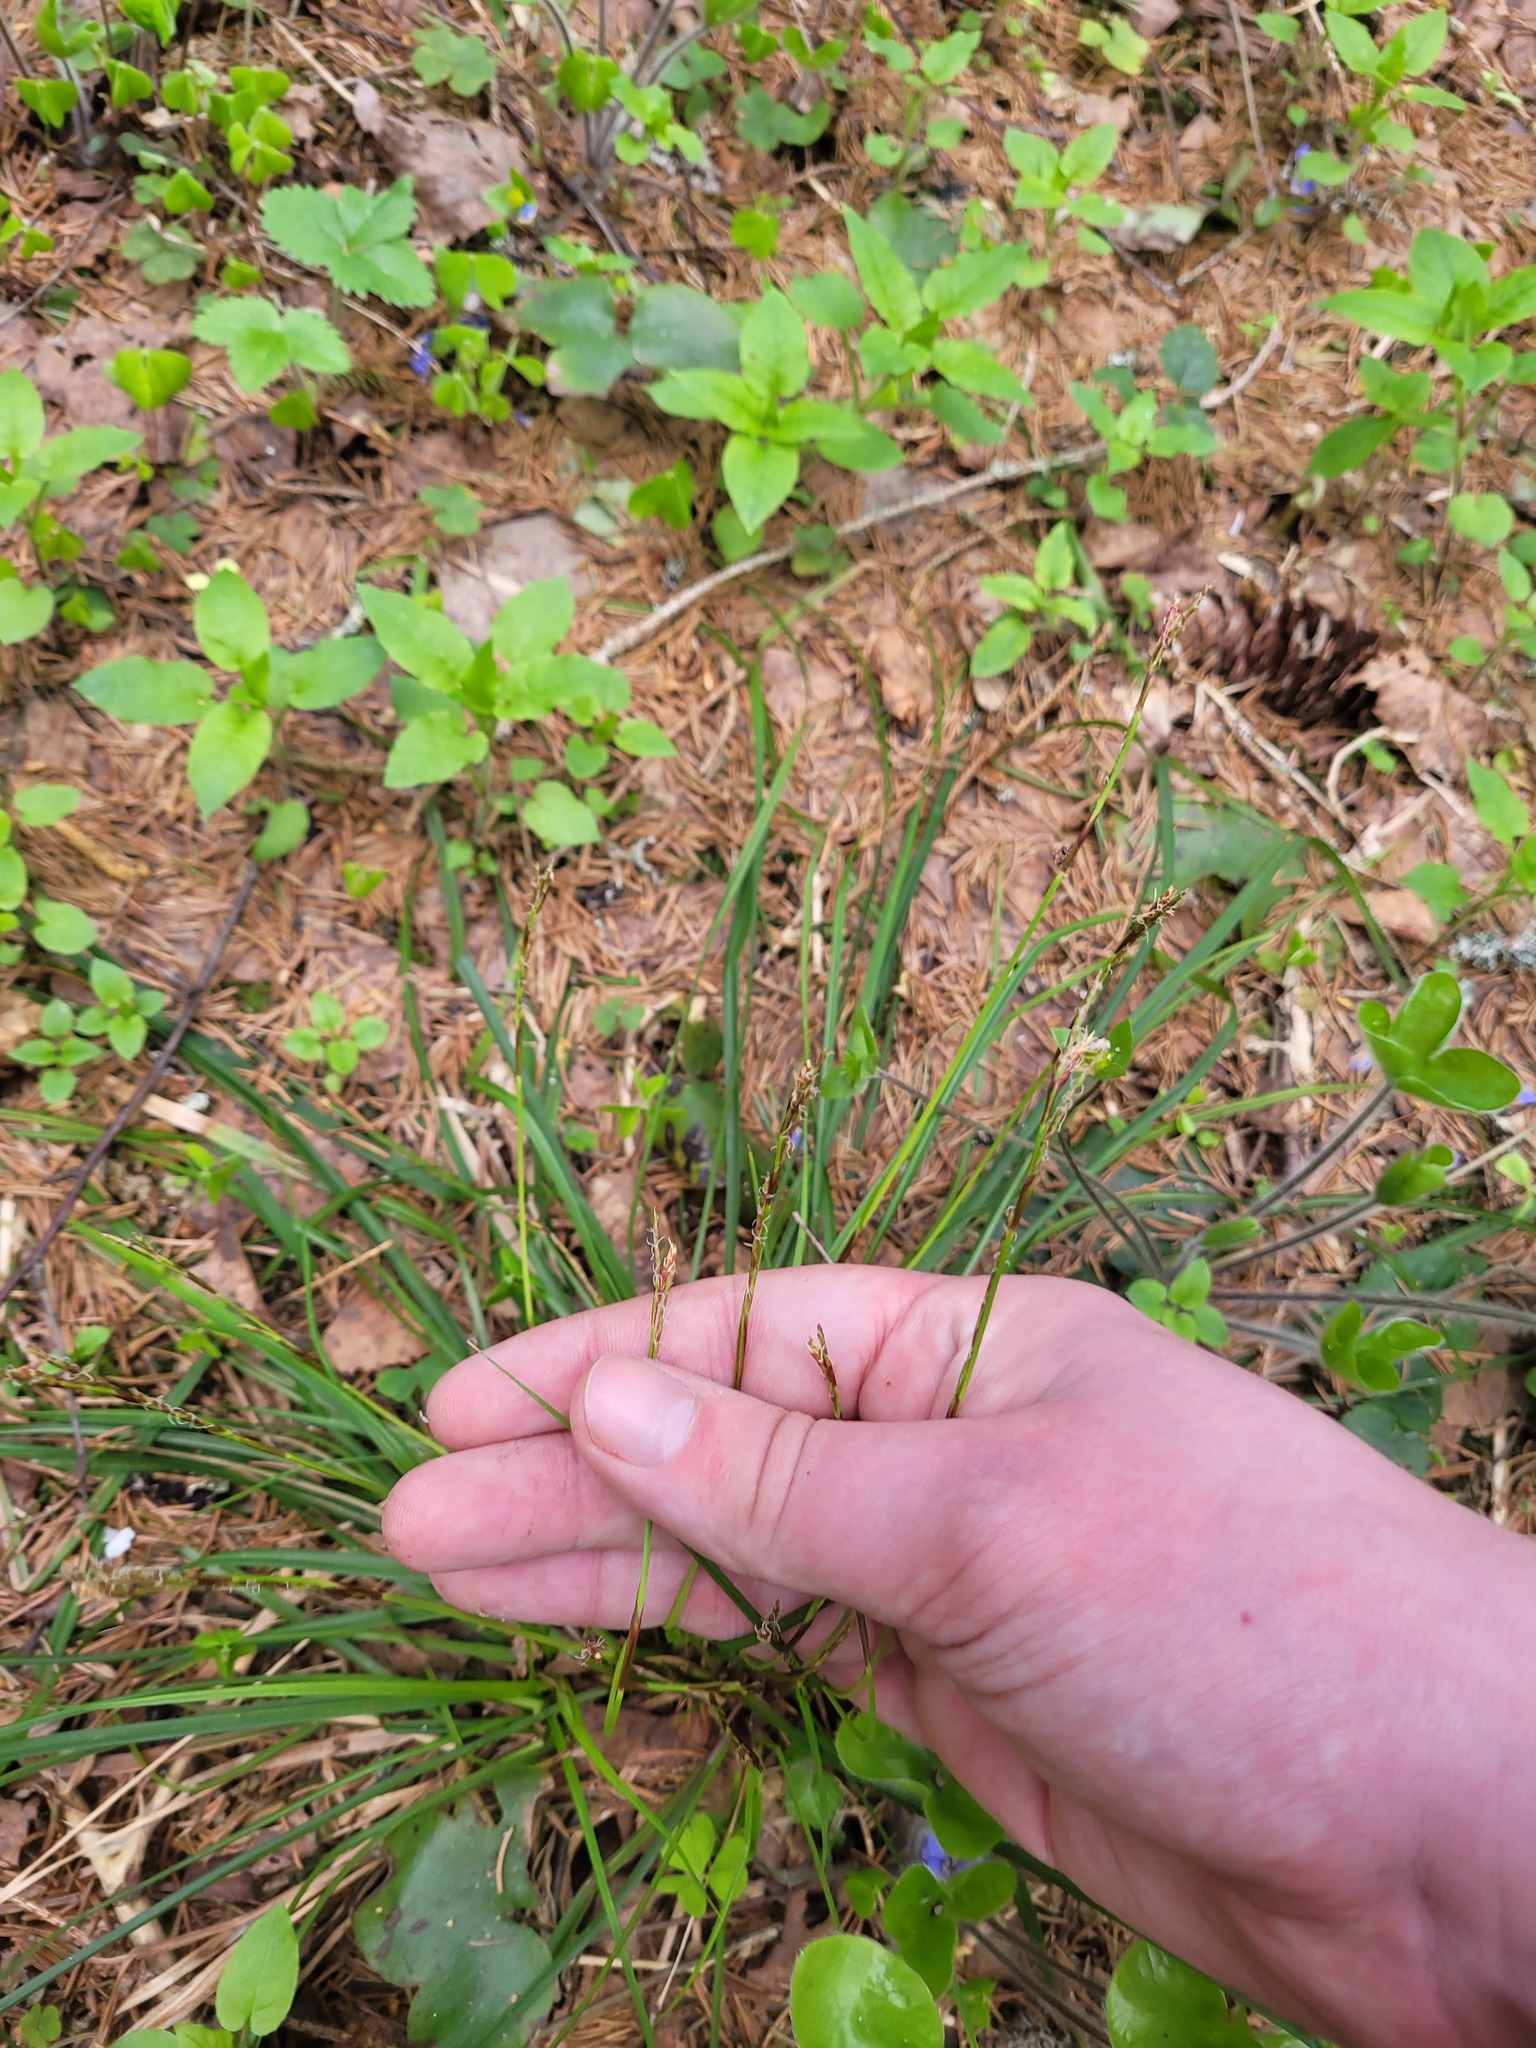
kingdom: Plantae
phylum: Tracheophyta
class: Liliopsida
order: Poales
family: Cyperaceae
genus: Carex
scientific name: Carex digitata
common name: Fingered sedge
